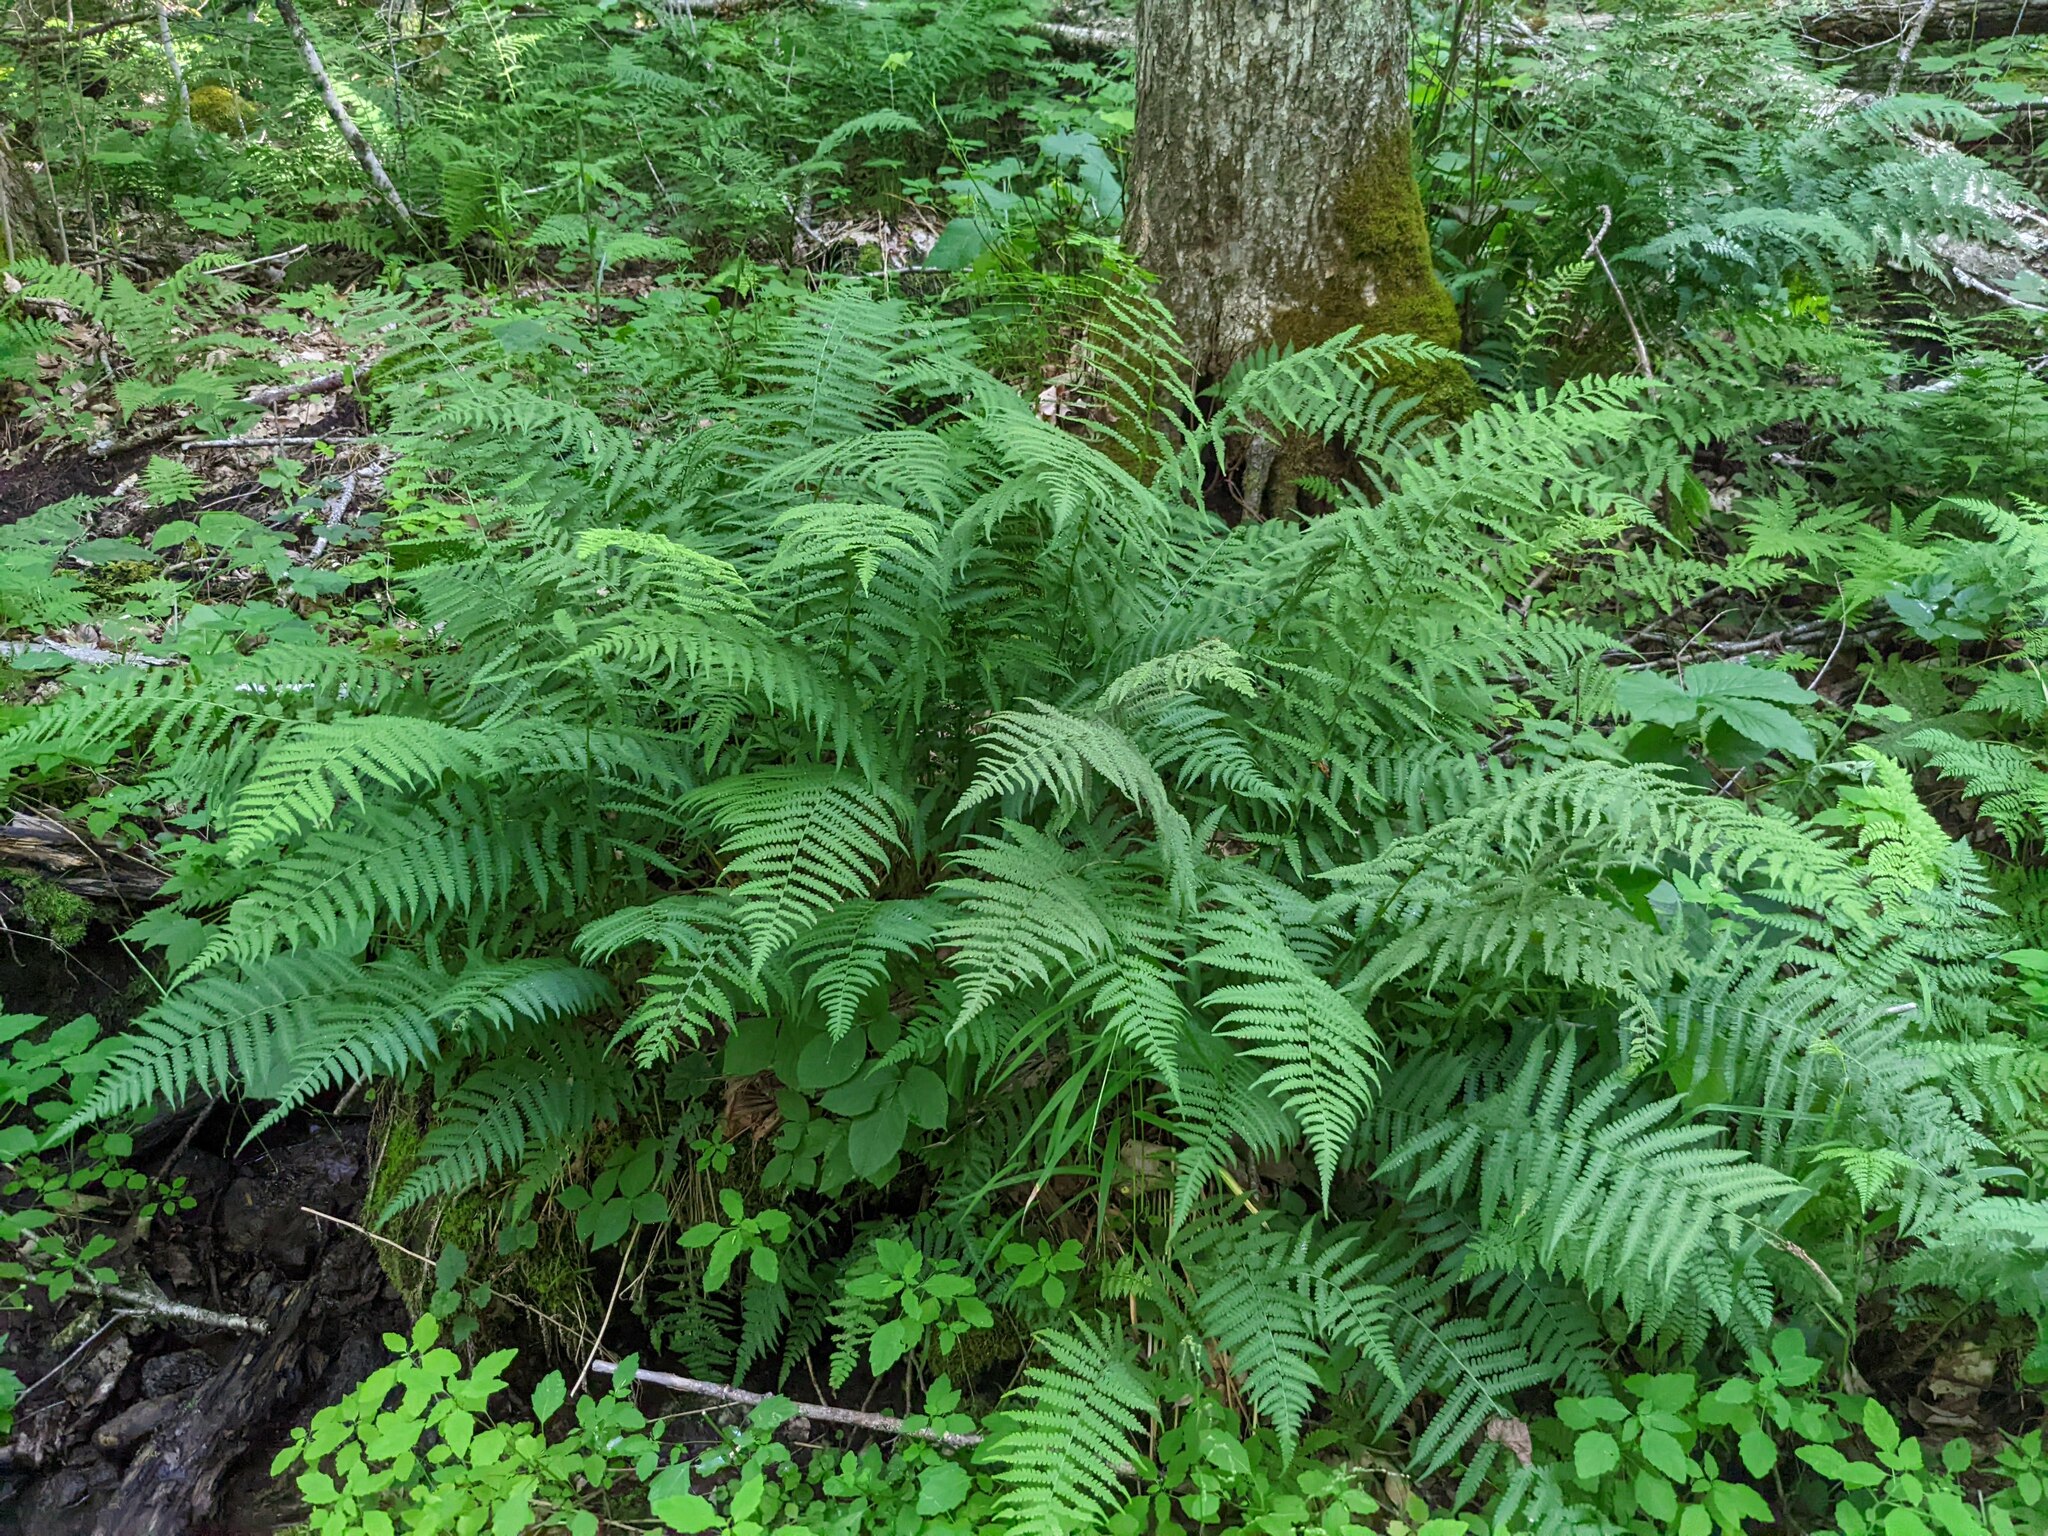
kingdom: Plantae
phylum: Tracheophyta
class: Polypodiopsida
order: Polypodiales
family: Athyriaceae
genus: Deparia
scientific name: Deparia acrostichoides
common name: Silver false spleenwort
